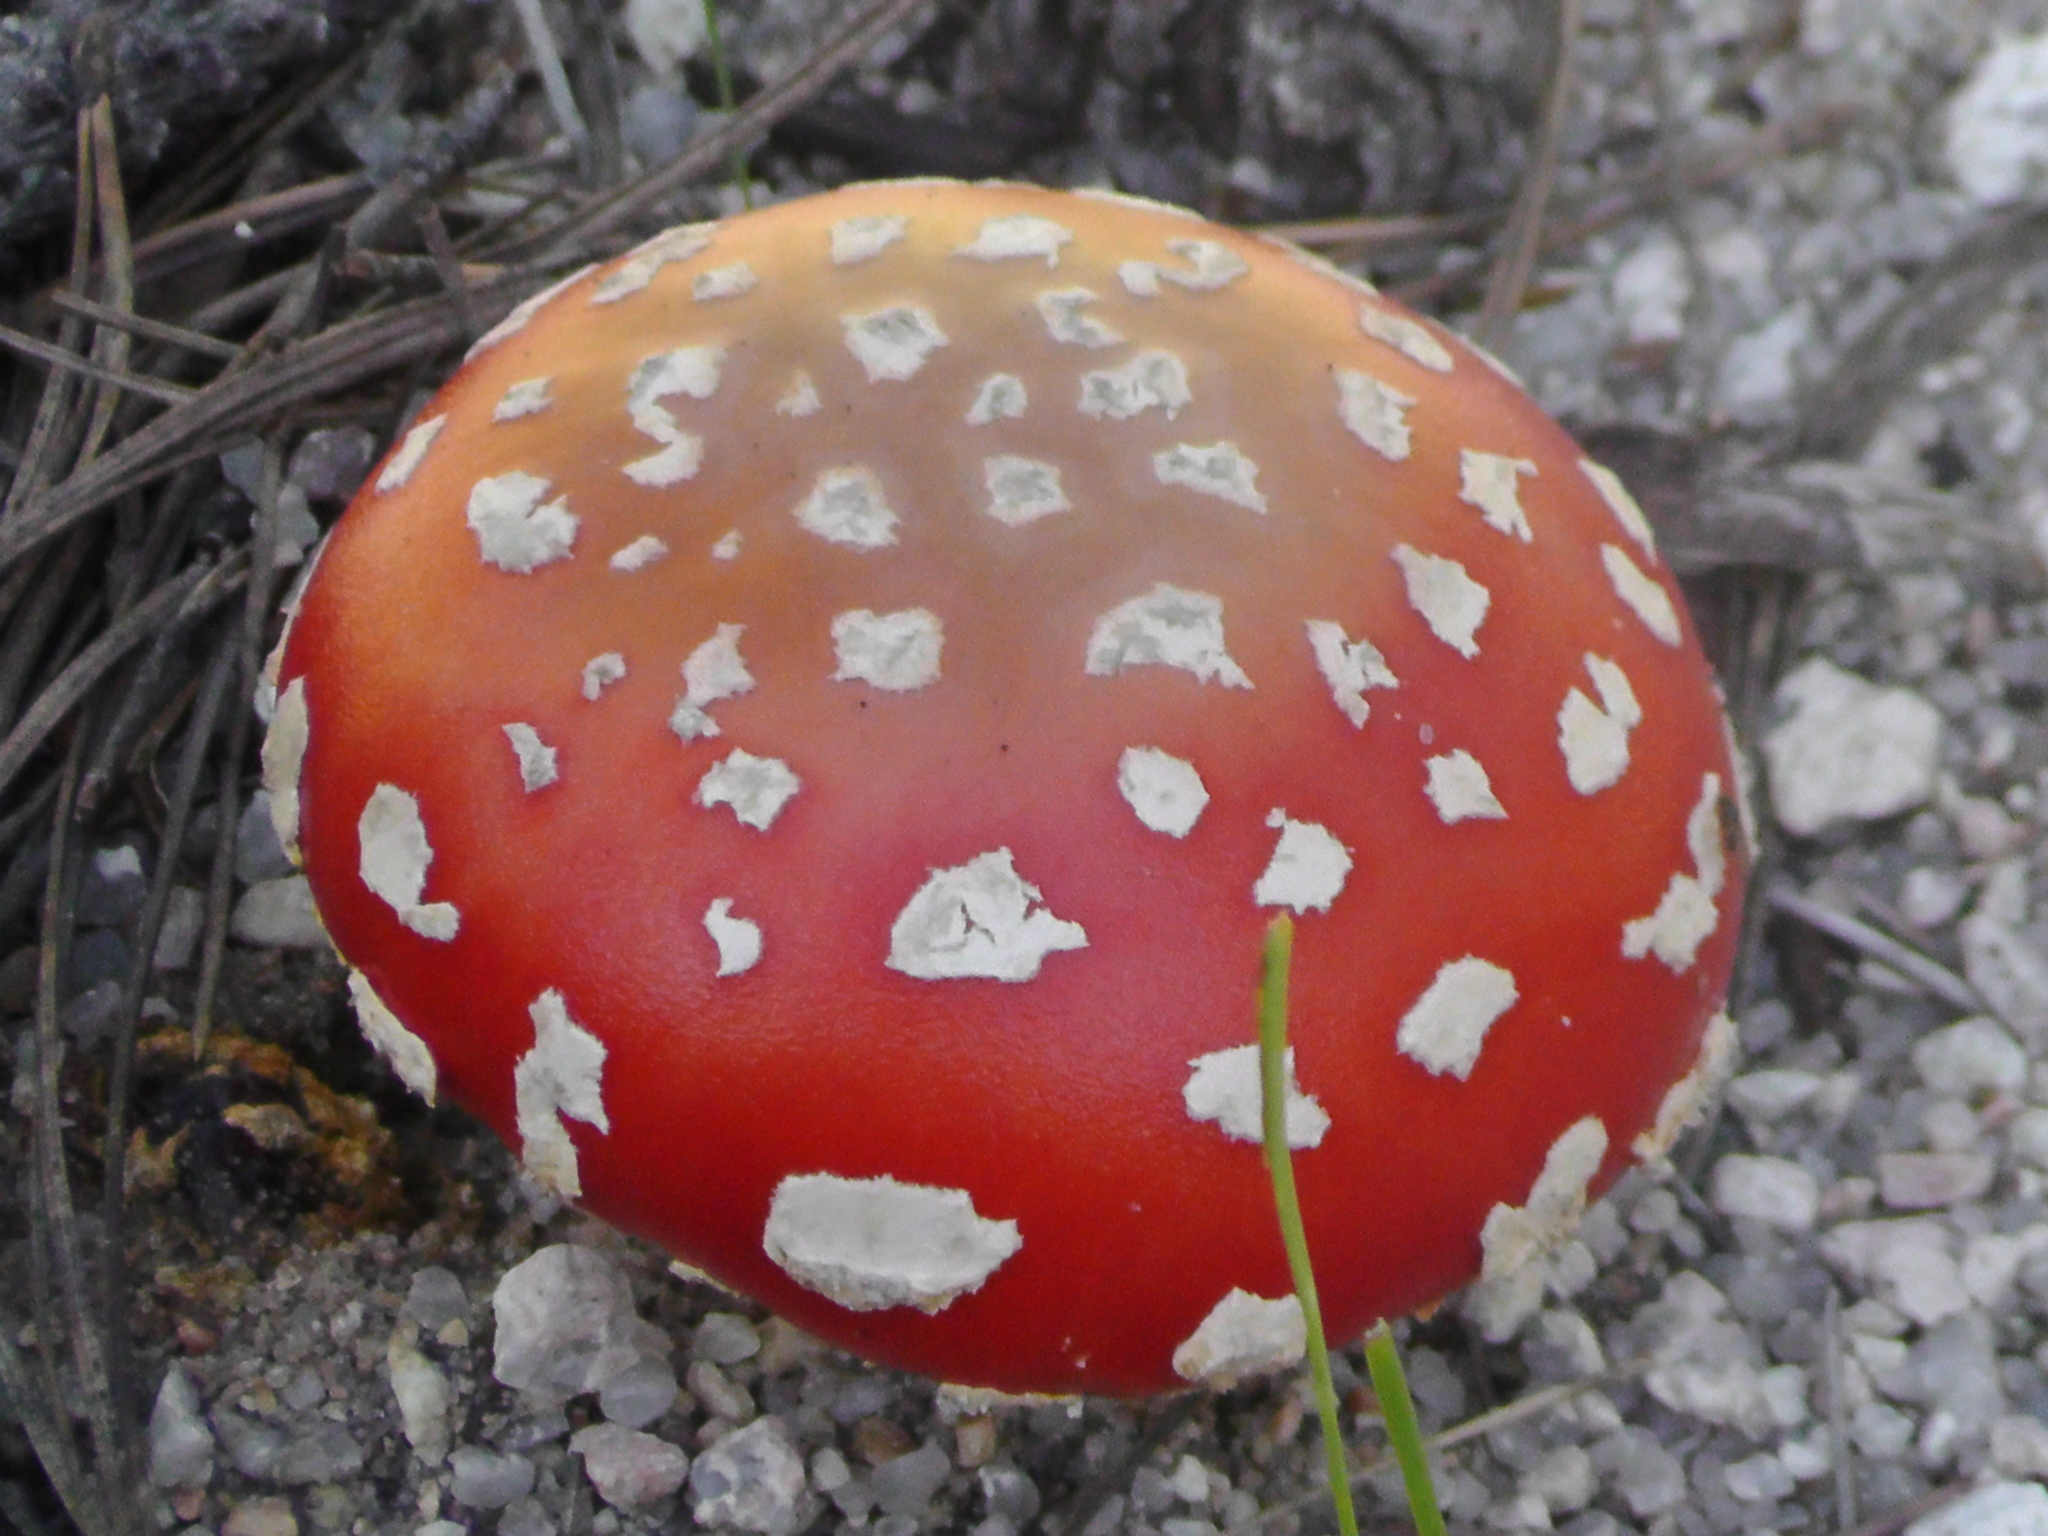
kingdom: Fungi
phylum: Basidiomycota
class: Agaricomycetes
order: Agaricales
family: Amanitaceae
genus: Amanita
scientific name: Amanita muscaria
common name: Fly agaric
